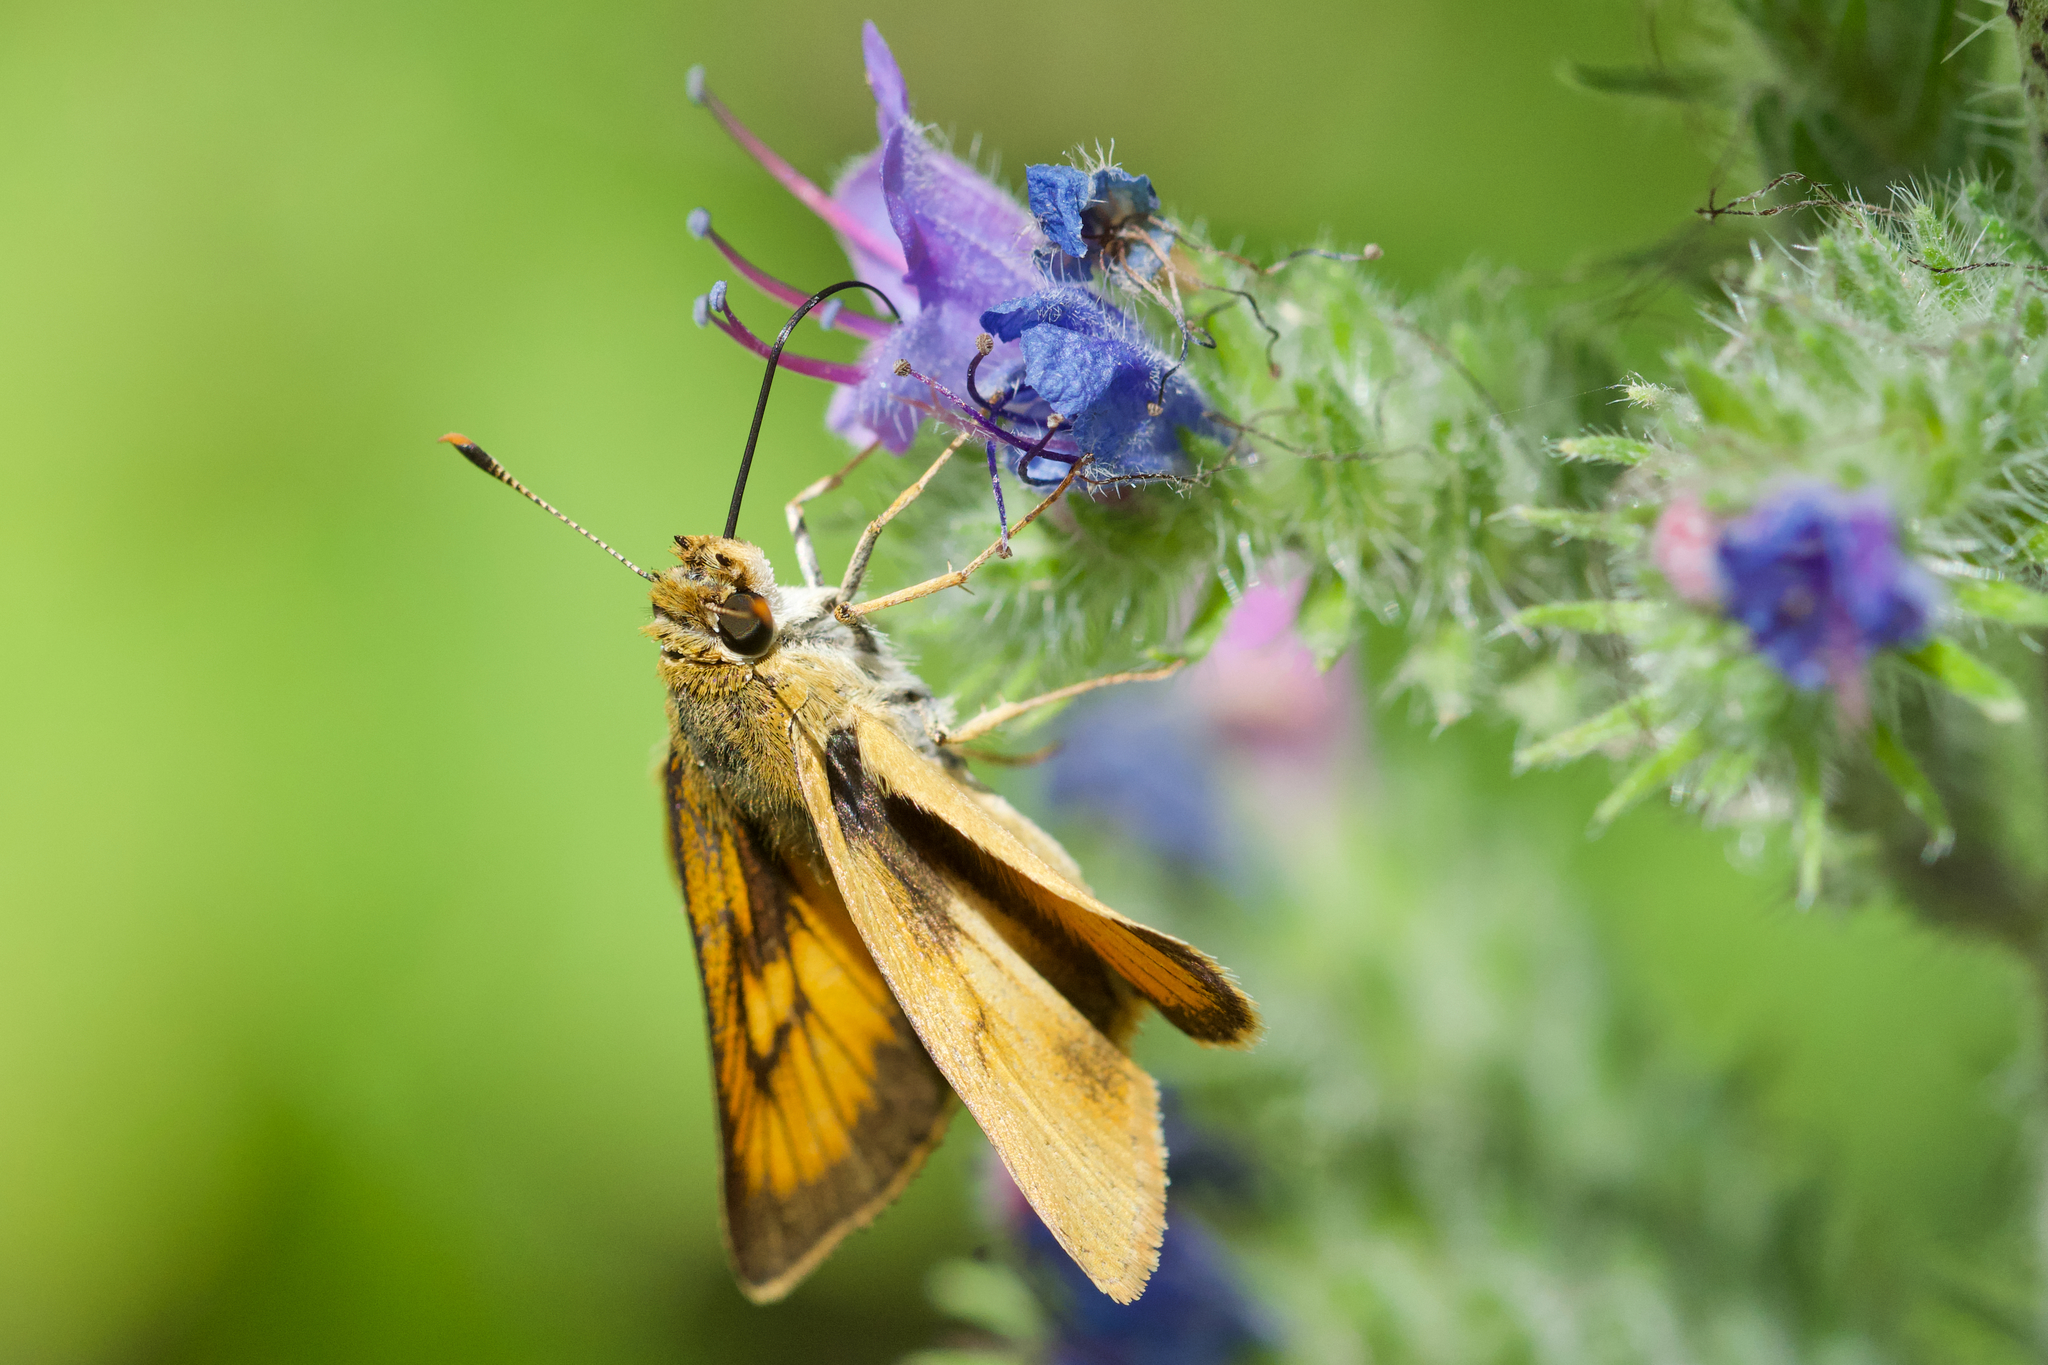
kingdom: Animalia
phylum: Arthropoda
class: Insecta
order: Lepidoptera
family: Hesperiidae
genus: Atrytone
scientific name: Atrytone delaware
